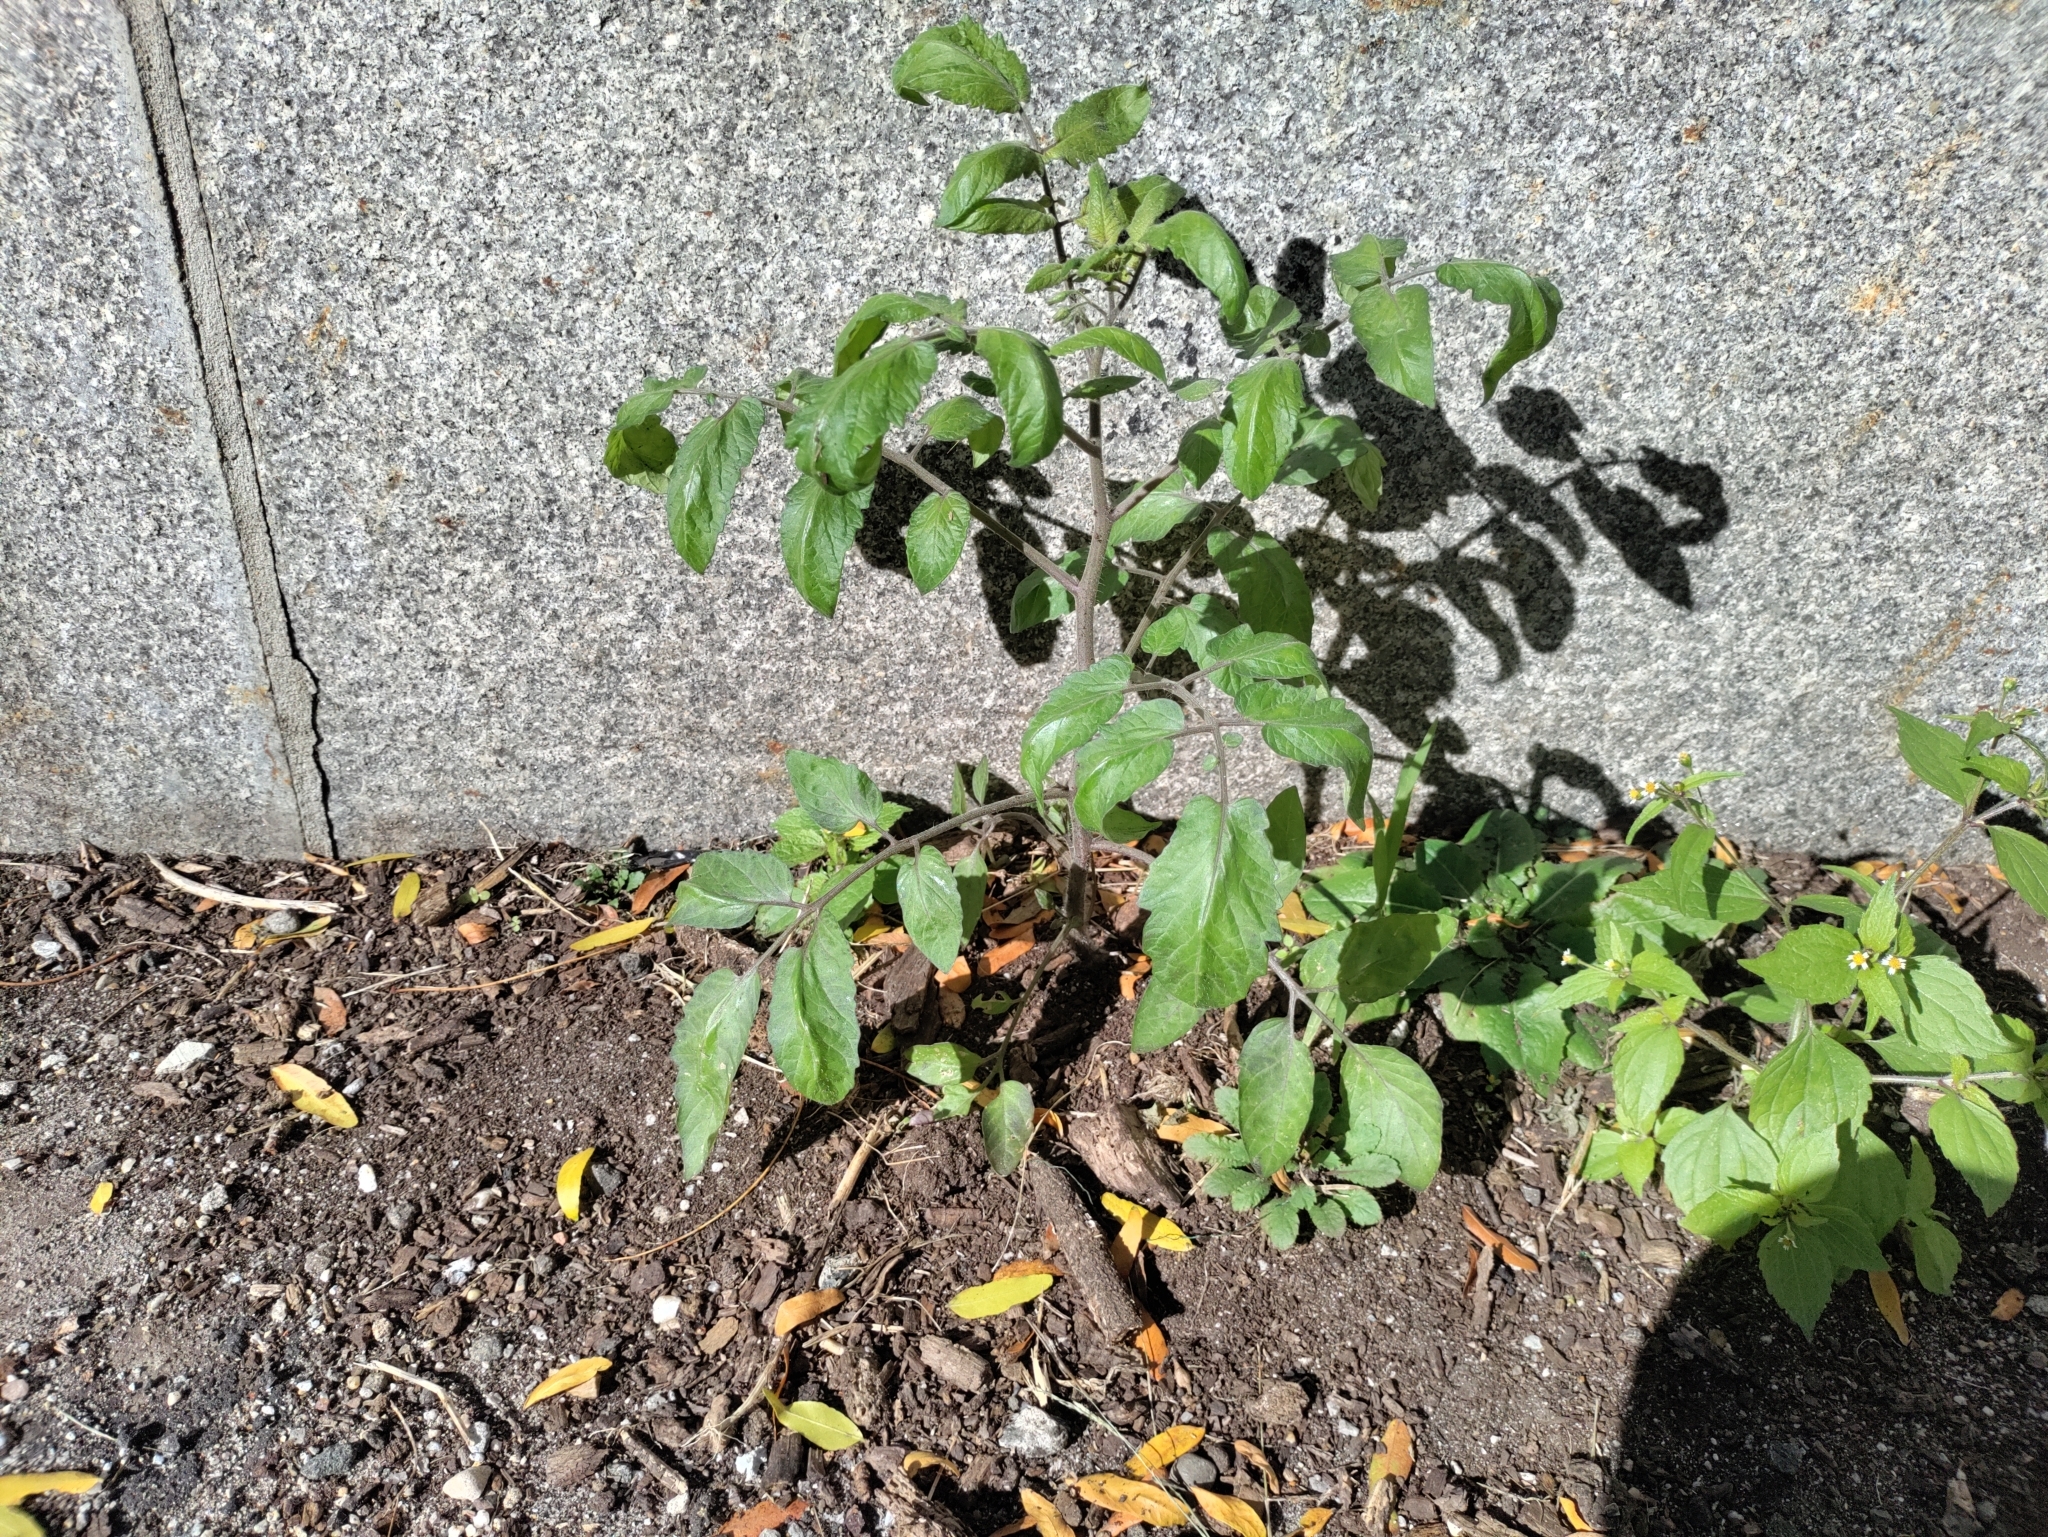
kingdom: Plantae
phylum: Tracheophyta
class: Magnoliopsida
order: Solanales
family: Solanaceae
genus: Solanum
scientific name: Solanum lycopersicum
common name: Garden tomato
